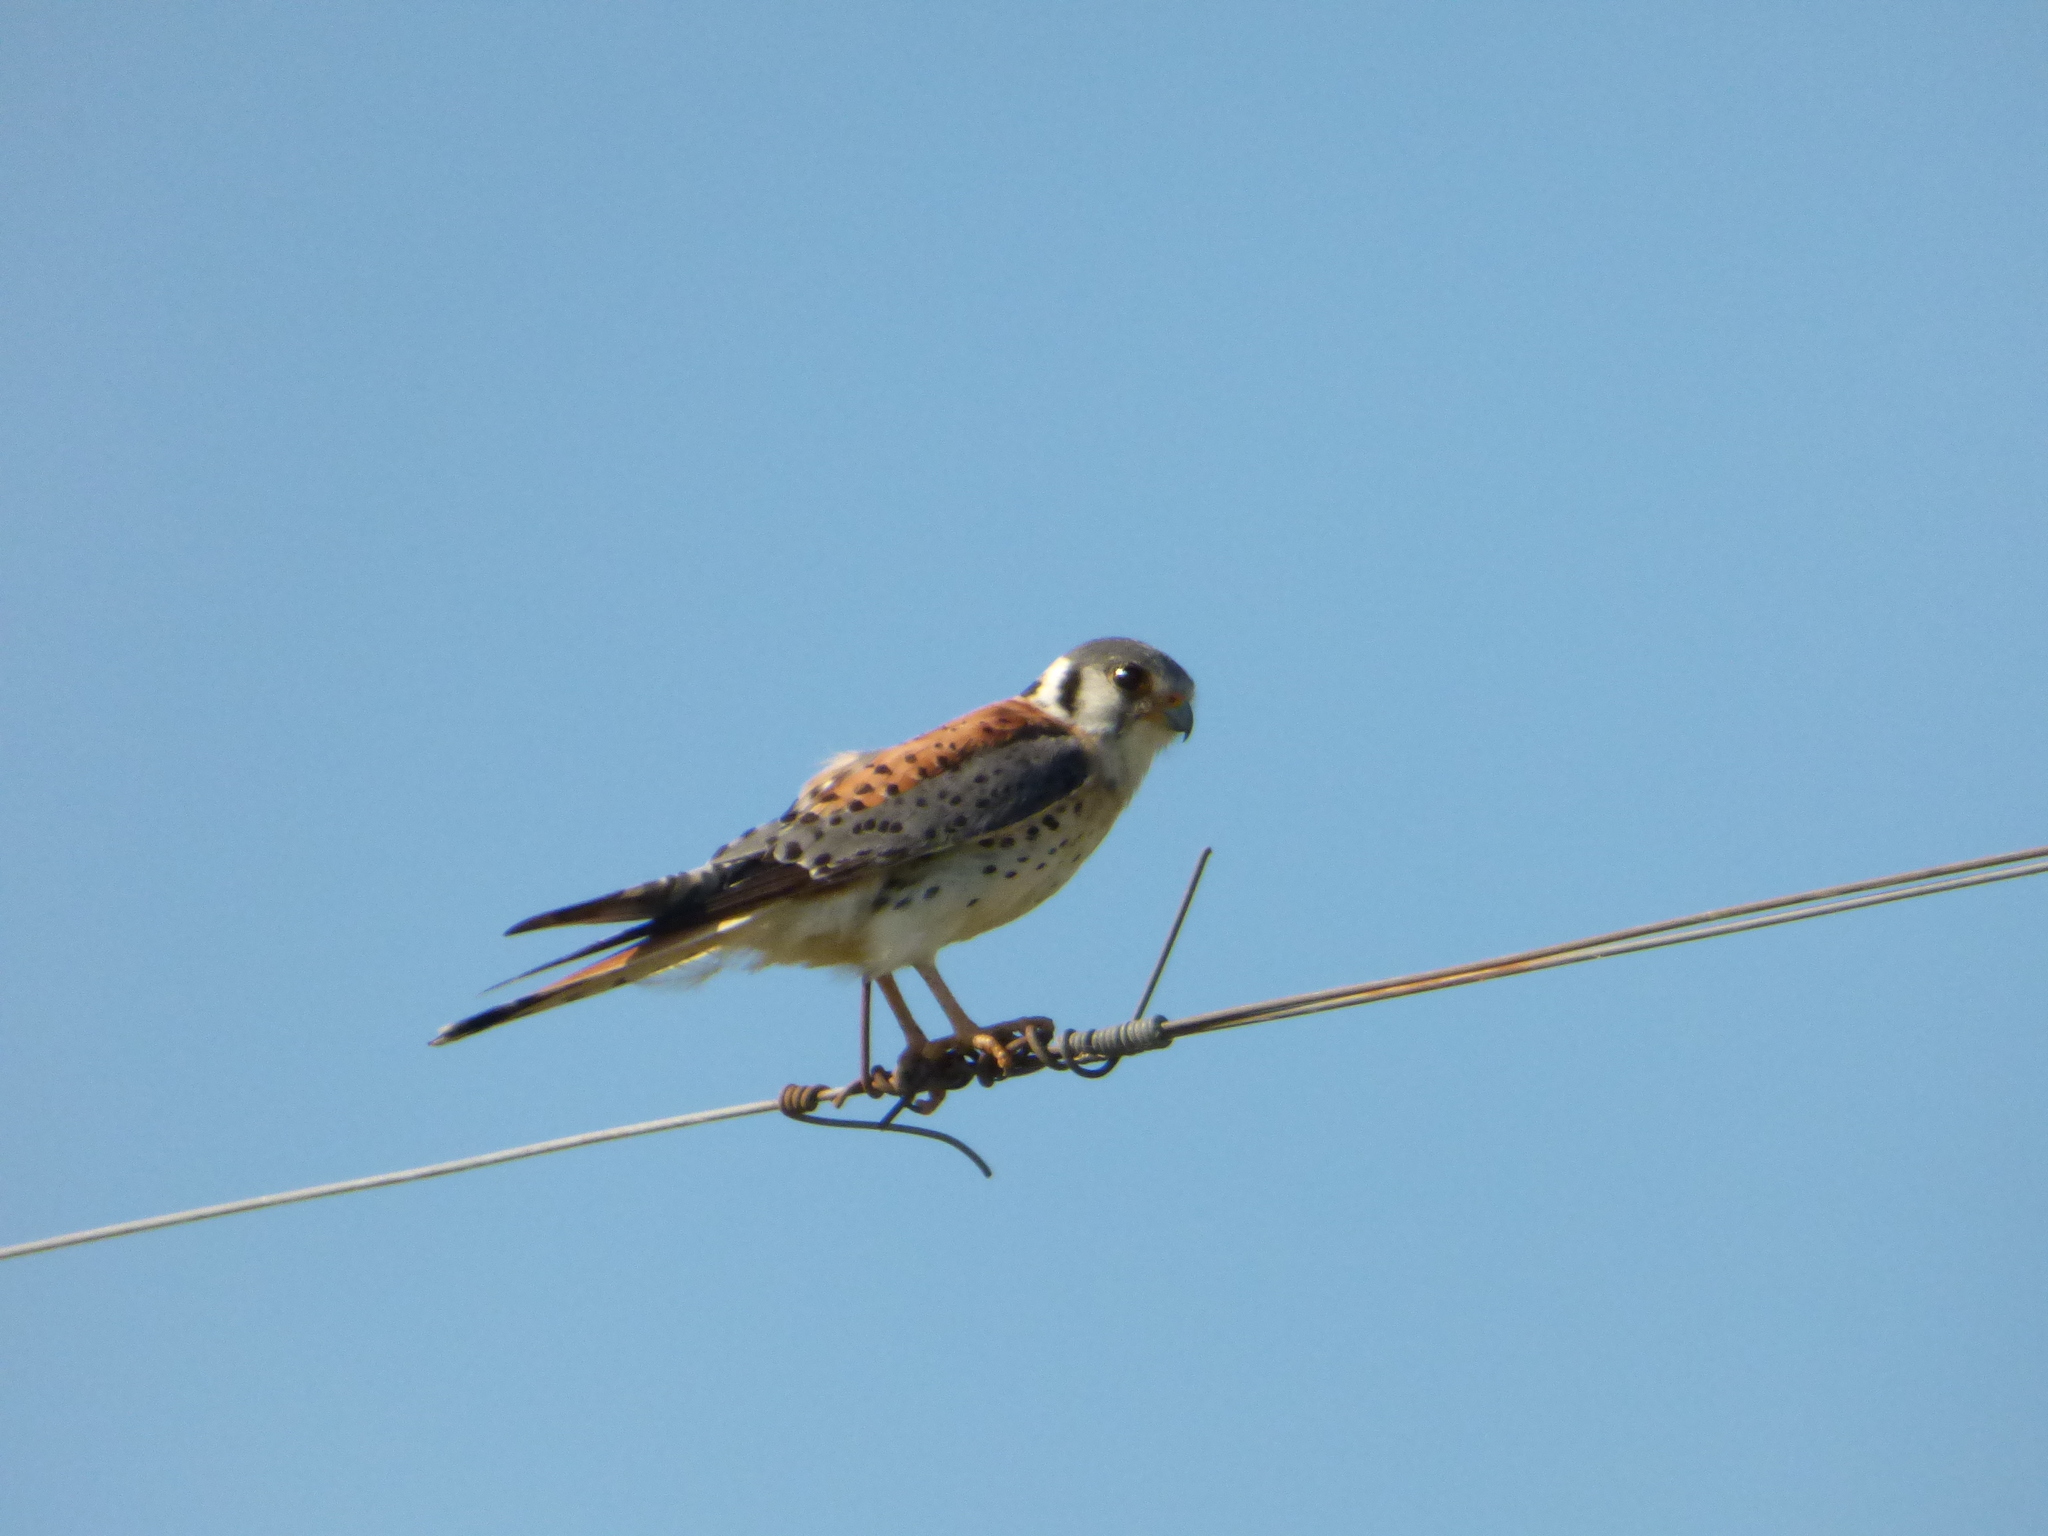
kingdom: Animalia
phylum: Chordata
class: Aves
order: Falconiformes
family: Falconidae
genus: Falco
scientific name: Falco sparverius
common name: American kestrel
